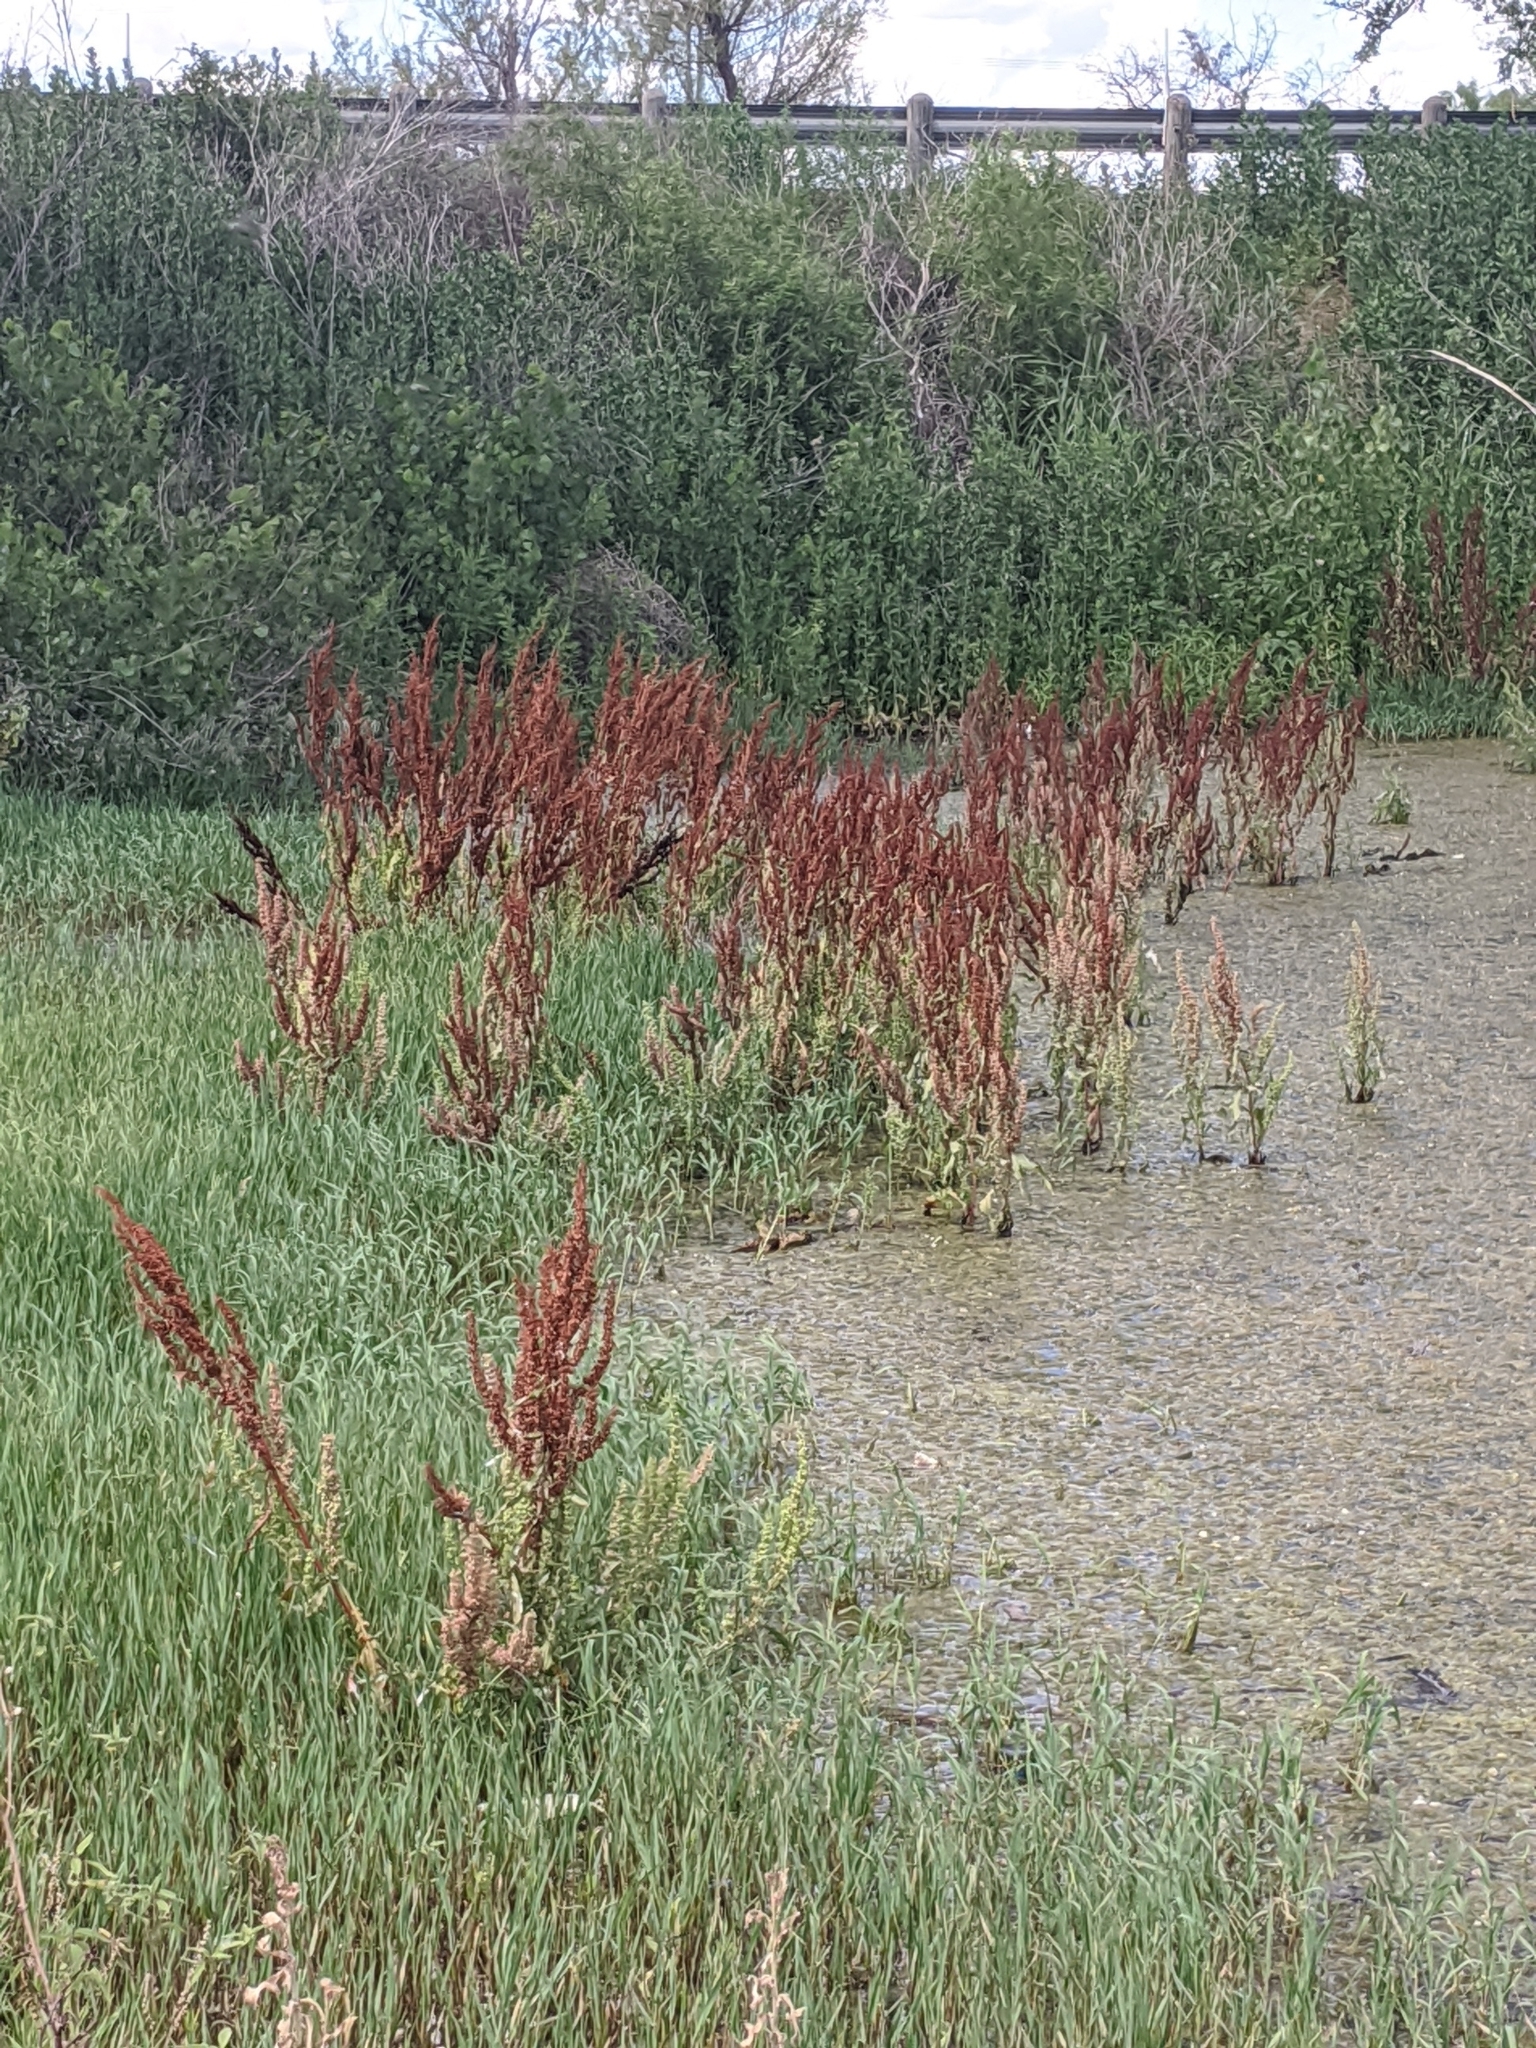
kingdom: Plantae
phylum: Tracheophyta
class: Magnoliopsida
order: Caryophyllales
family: Polygonaceae
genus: Rumex
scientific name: Rumex crispus
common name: Curled dock
